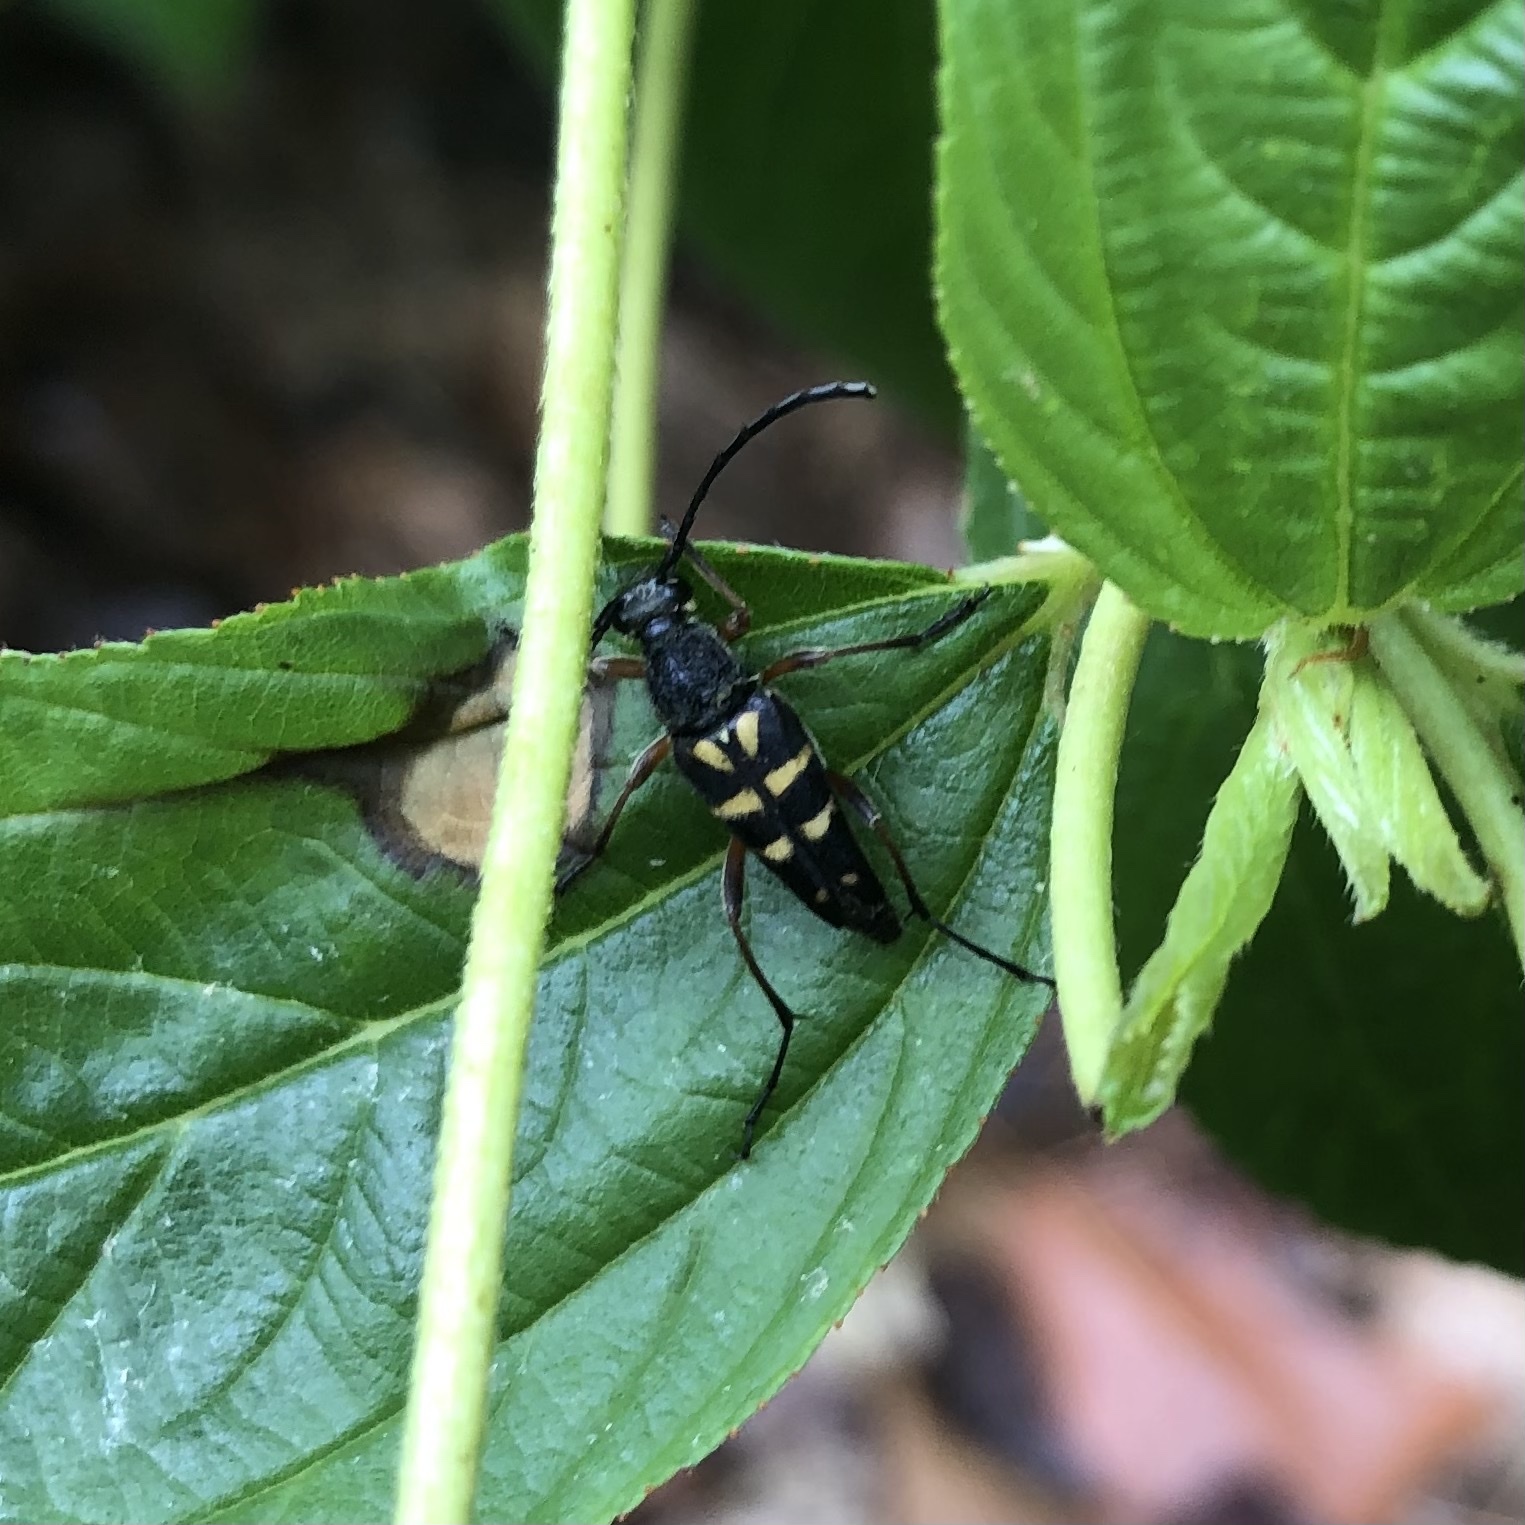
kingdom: Animalia
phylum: Arthropoda
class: Insecta
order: Coleoptera
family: Cerambycidae
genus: Typocerus
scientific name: Typocerus zebra
